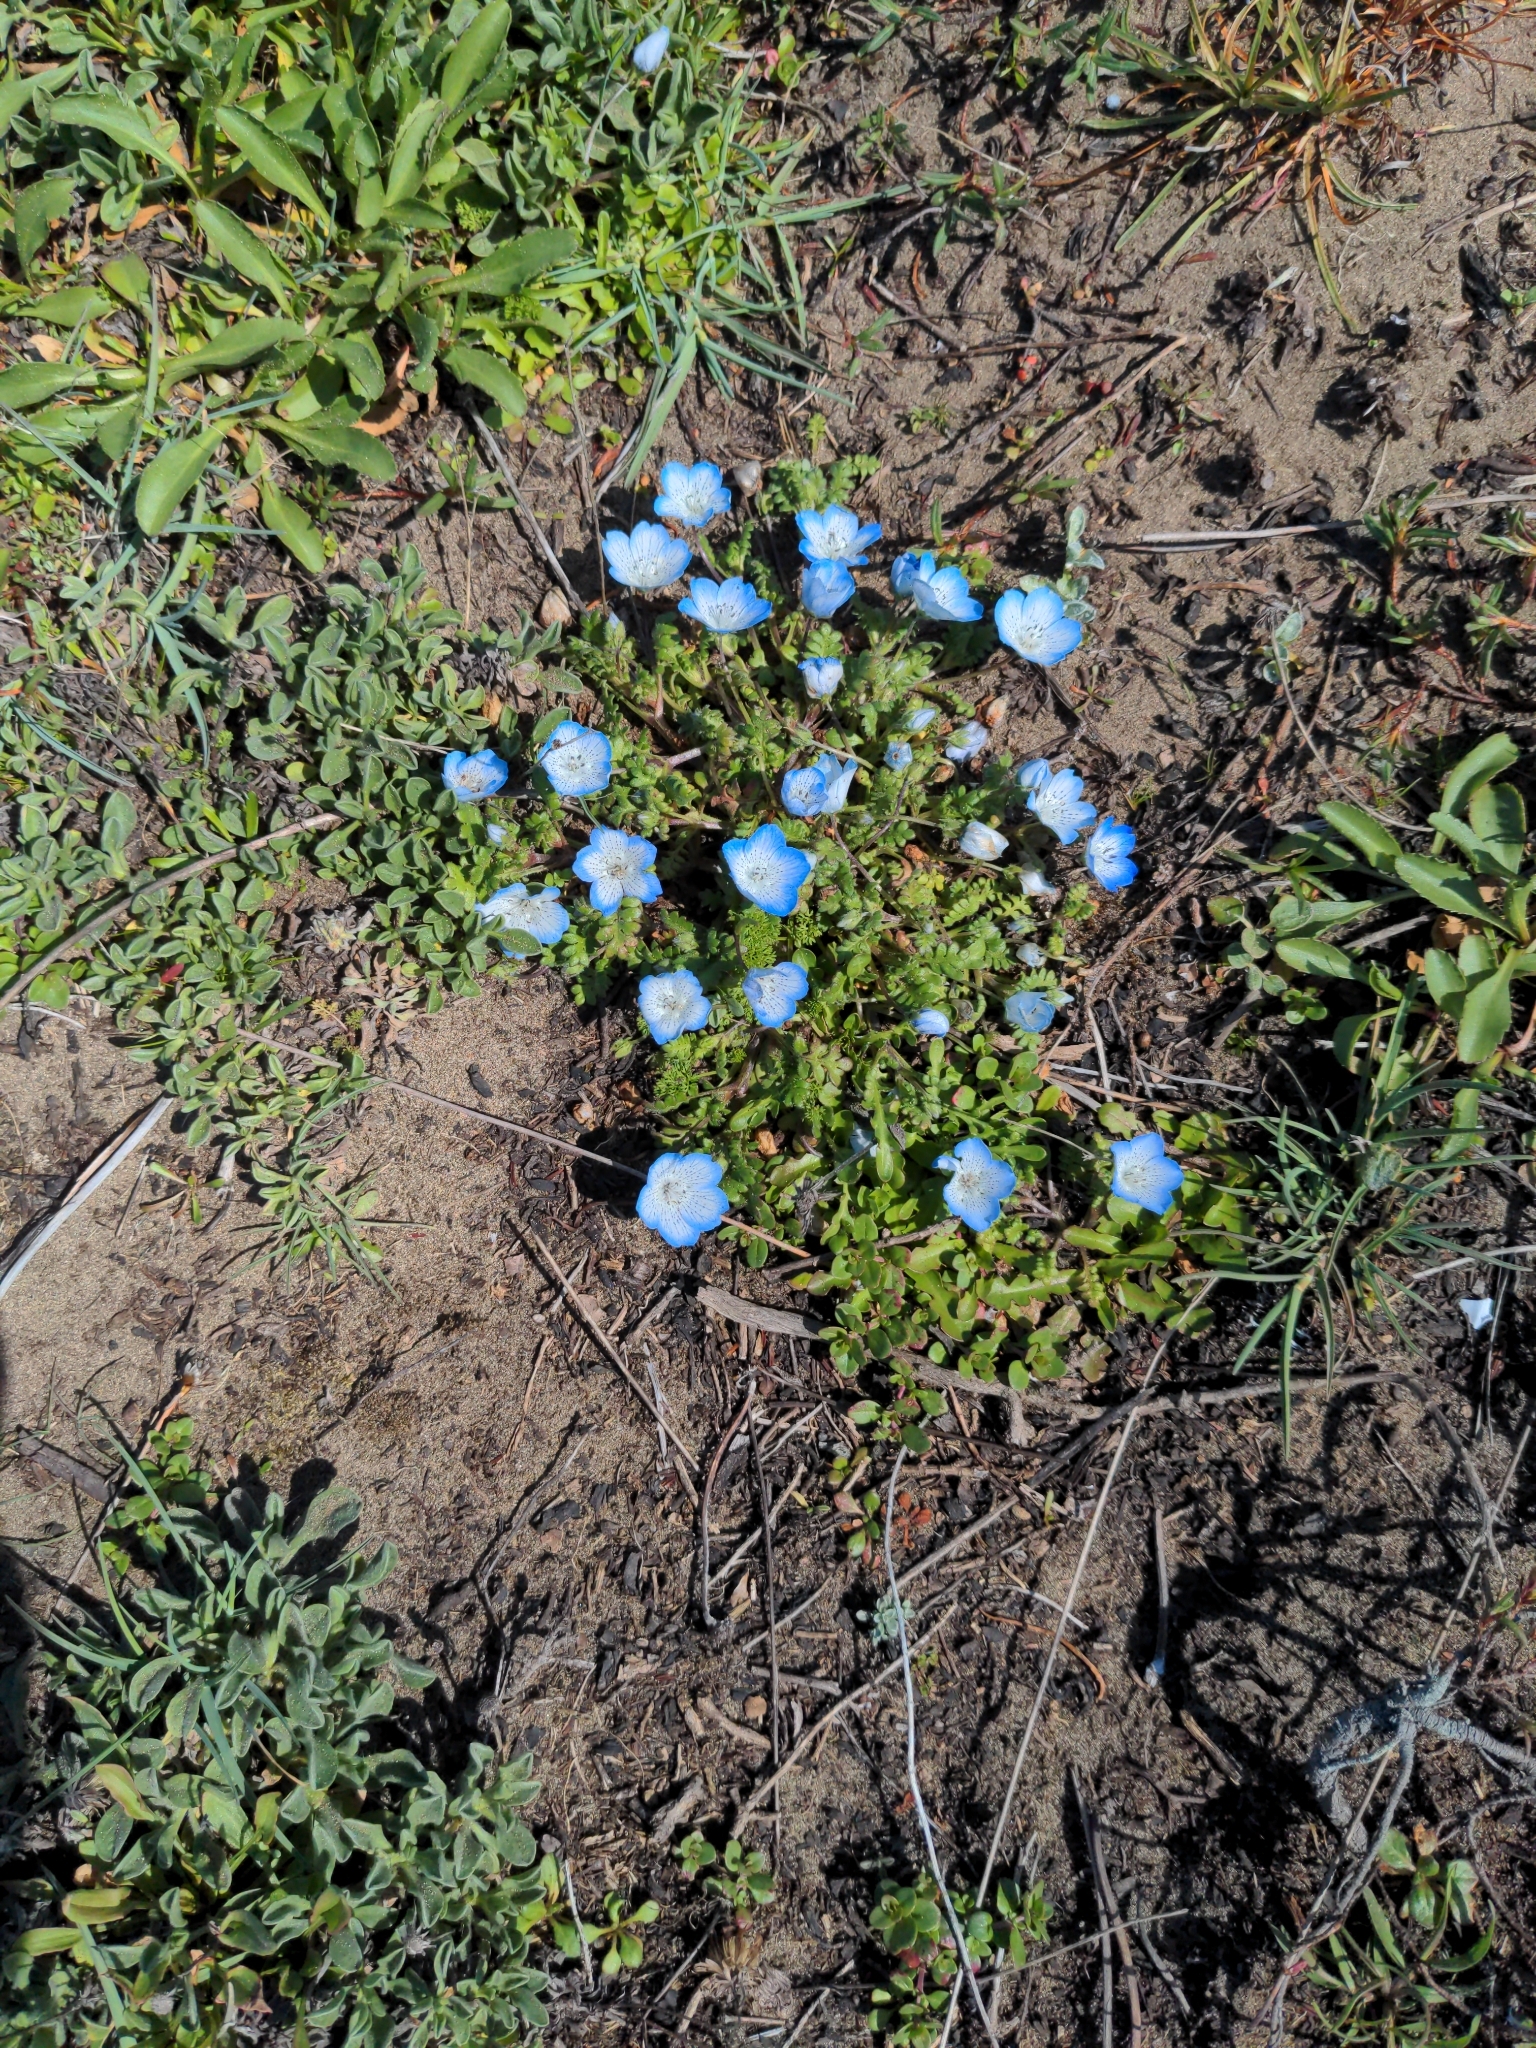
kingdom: Plantae
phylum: Tracheophyta
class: Magnoliopsida
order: Boraginales
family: Hydrophyllaceae
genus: Nemophila
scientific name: Nemophila menziesii
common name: Baby's-blue-eyes
